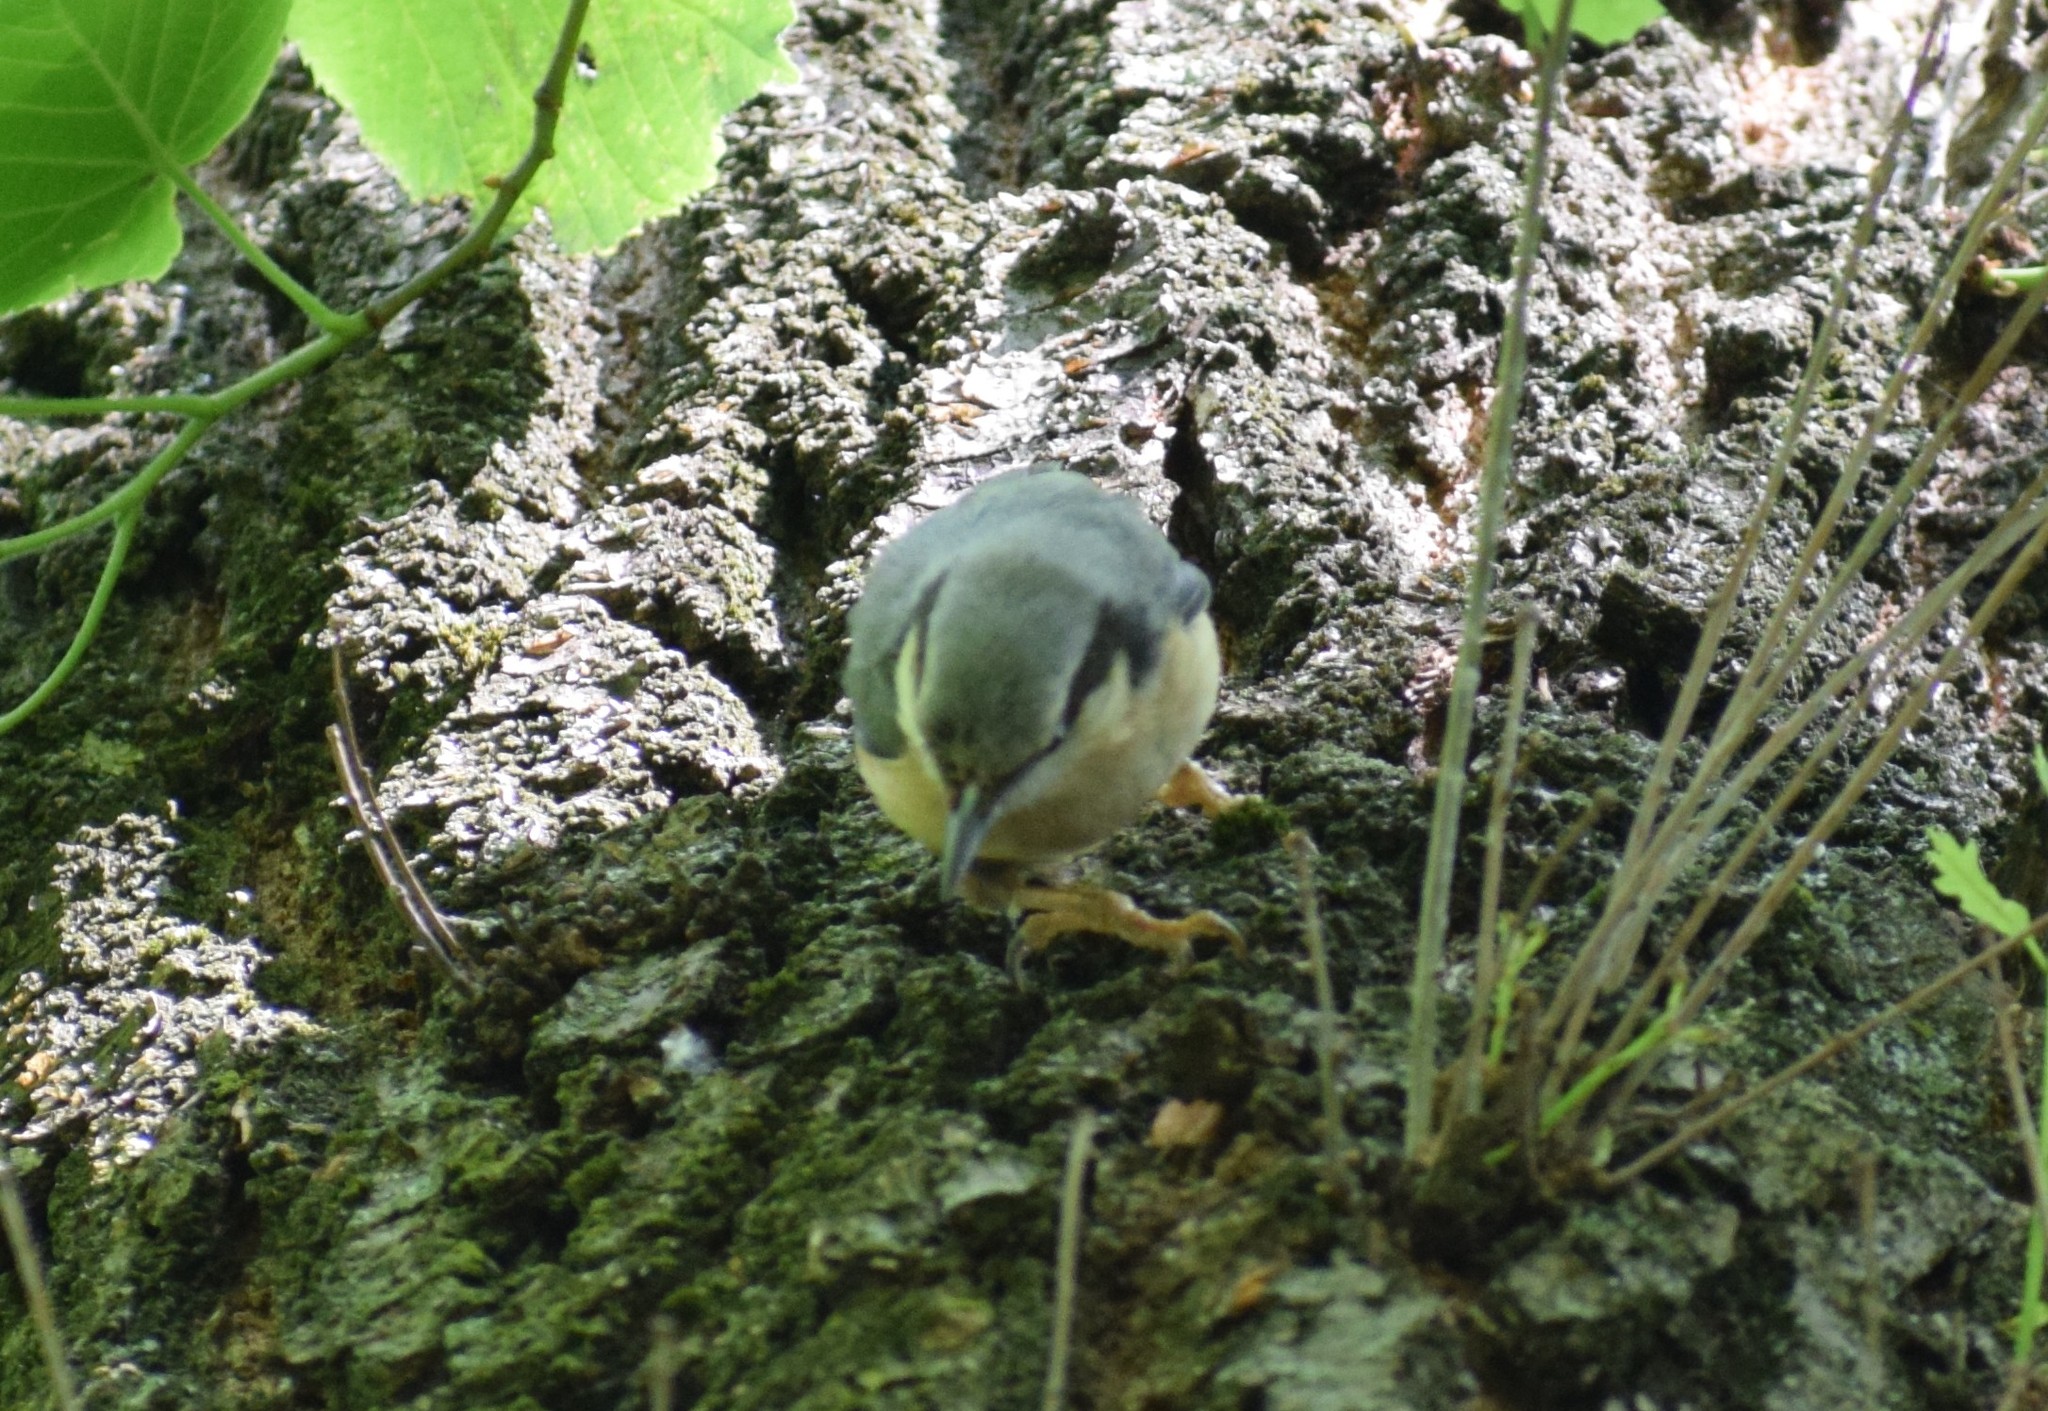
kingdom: Animalia
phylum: Chordata
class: Aves
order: Passeriformes
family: Sittidae
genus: Sitta
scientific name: Sitta europaea
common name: Eurasian nuthatch
